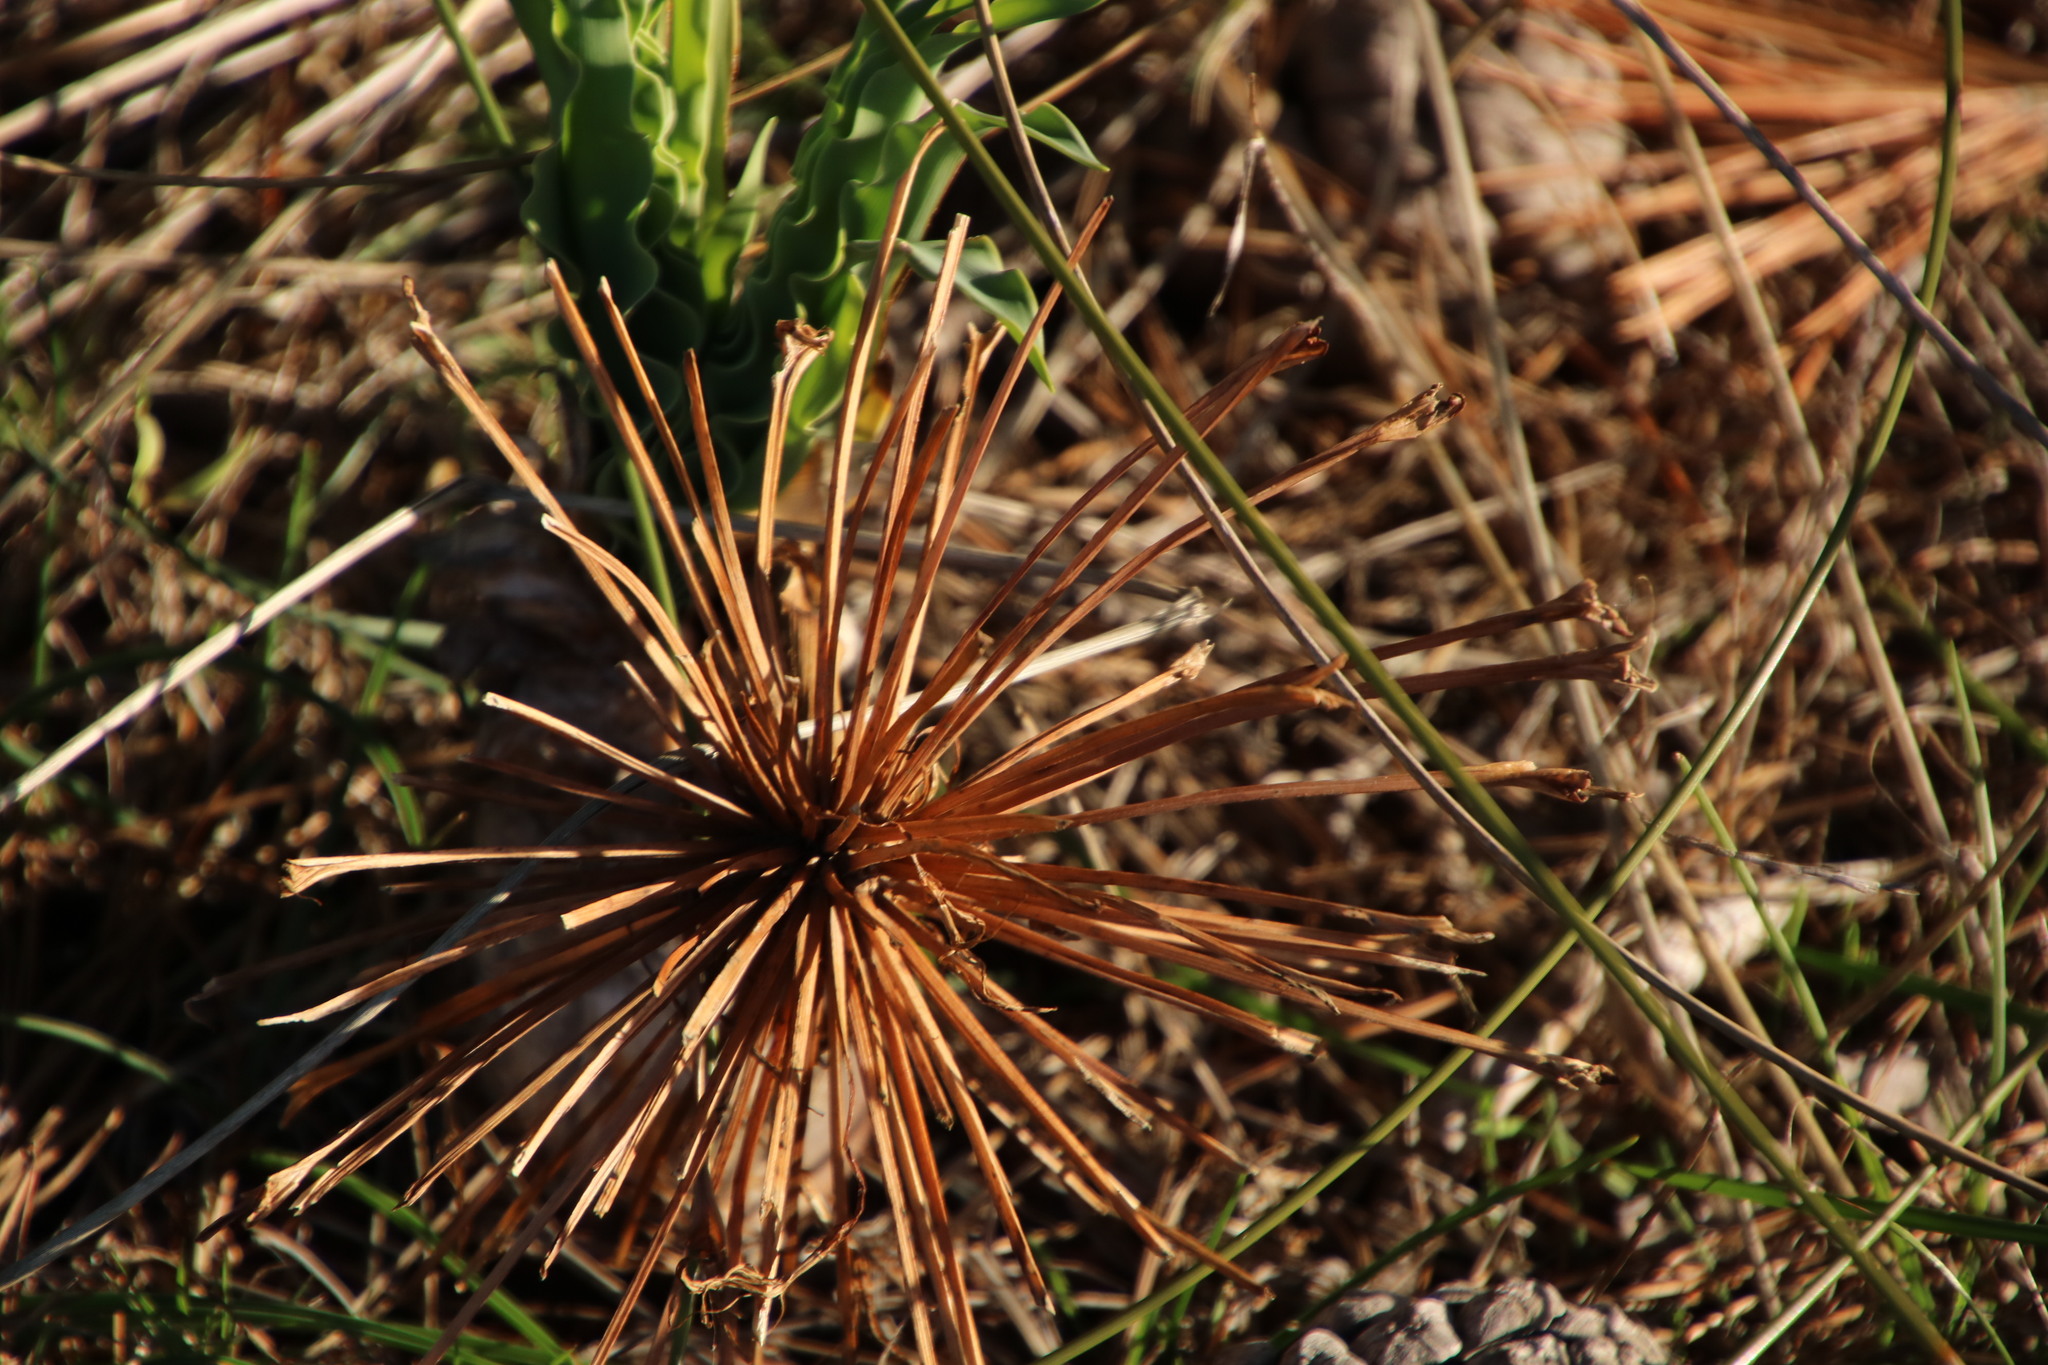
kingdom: Plantae
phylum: Tracheophyta
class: Liliopsida
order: Asparagales
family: Amaryllidaceae
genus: Boophone
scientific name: Boophone disticha
